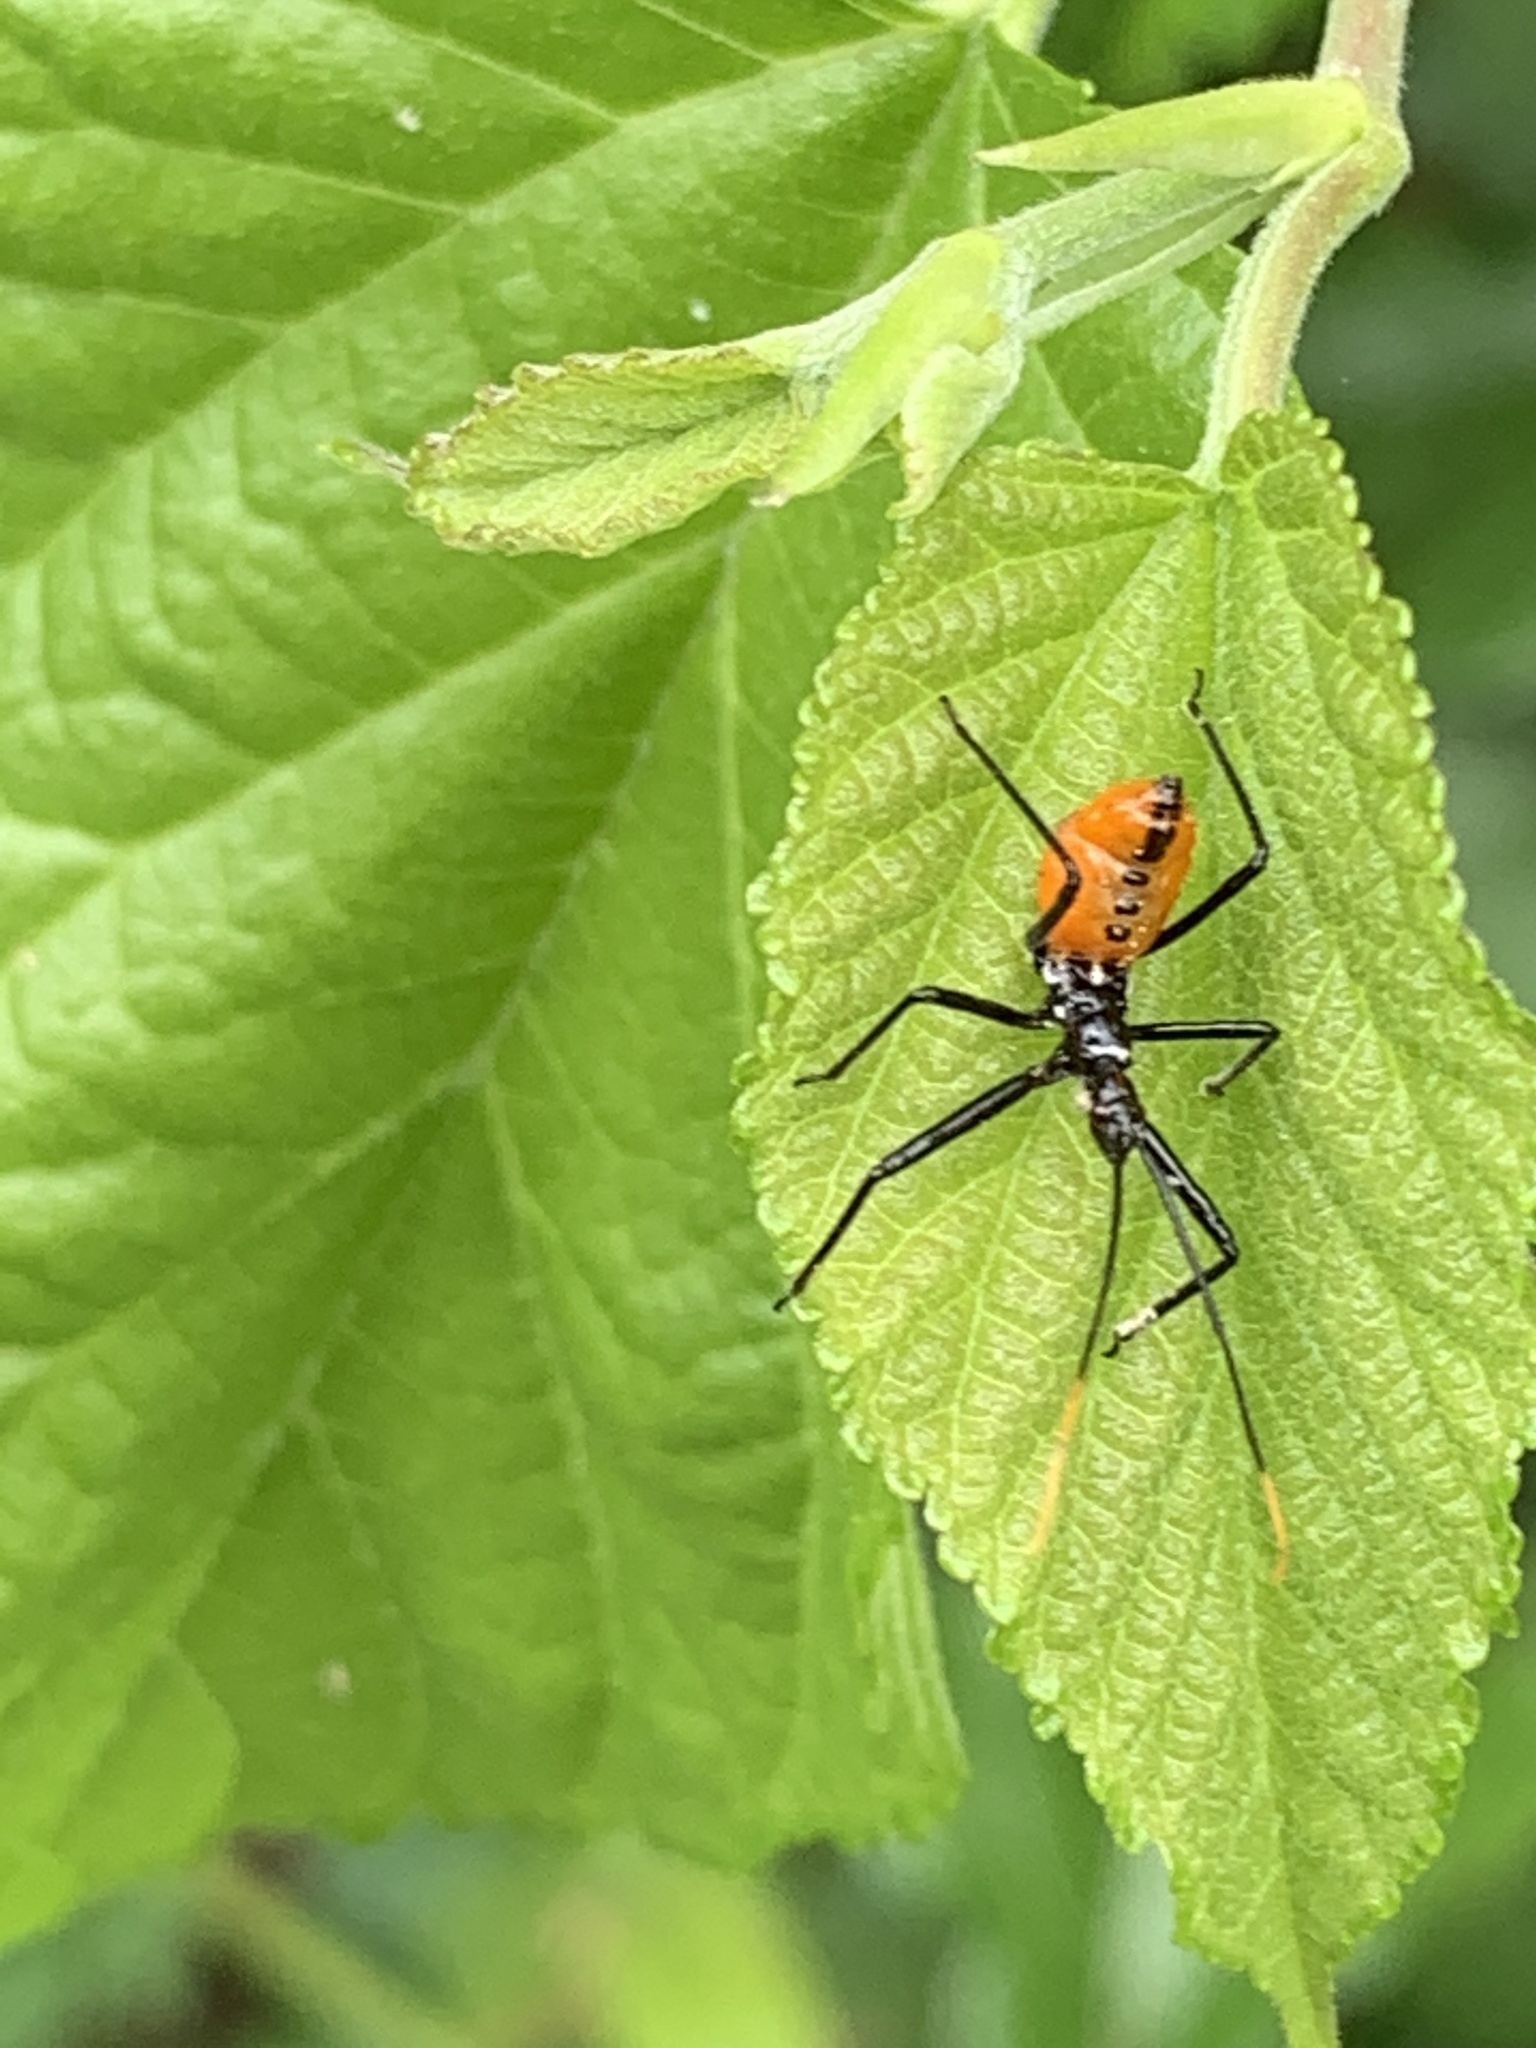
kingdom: Animalia
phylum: Arthropoda
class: Insecta
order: Hemiptera
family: Reduviidae
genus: Arilus
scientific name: Arilus cristatus
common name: North american wheel bug
